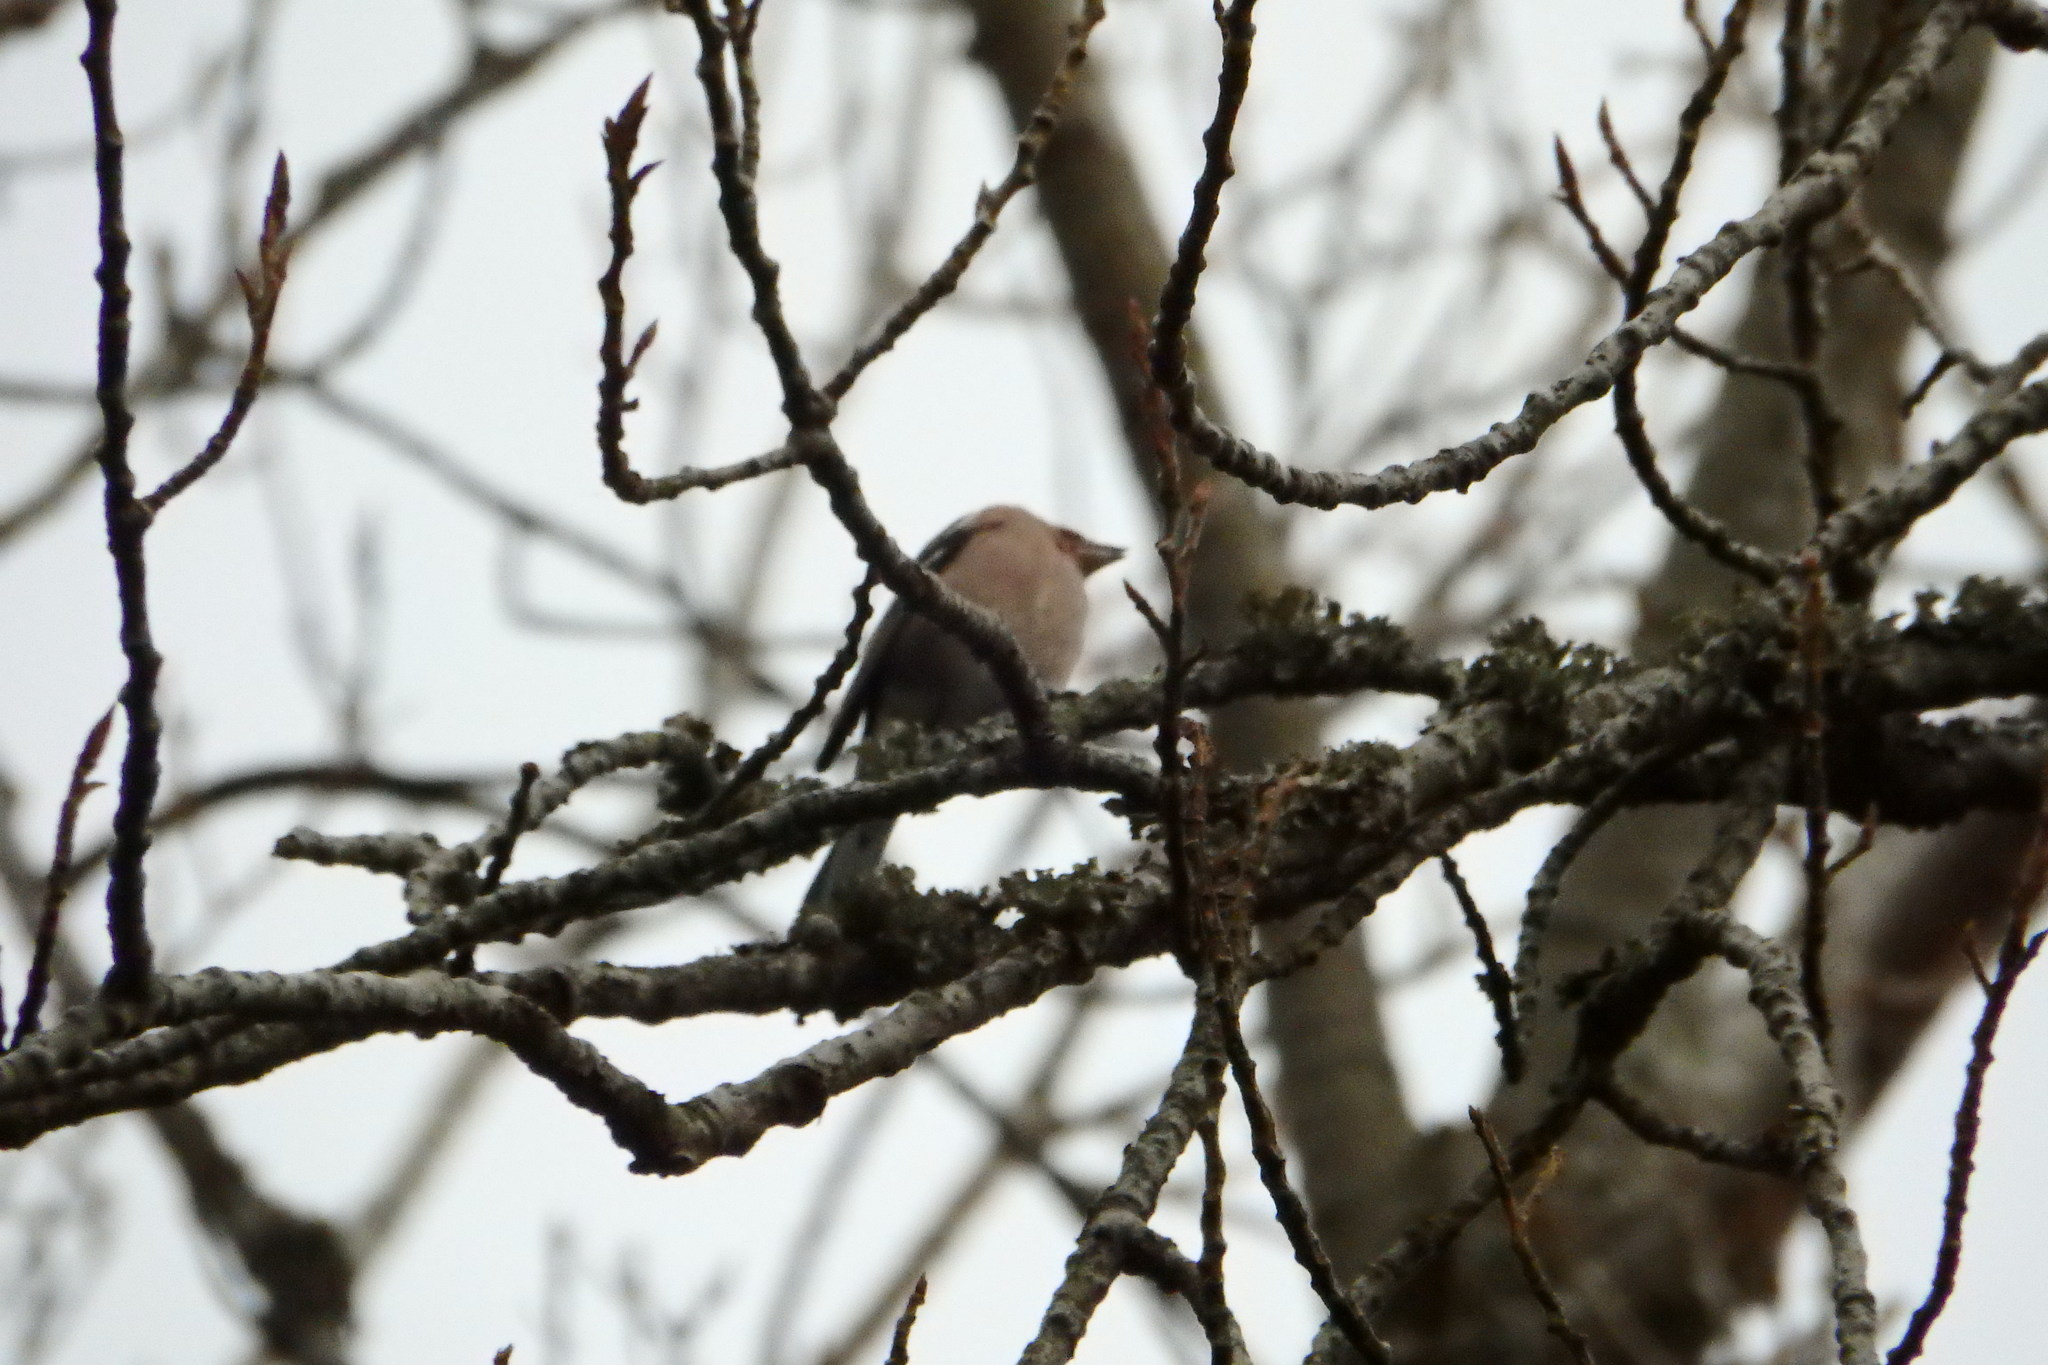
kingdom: Animalia
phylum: Chordata
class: Aves
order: Passeriformes
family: Fringillidae
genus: Fringilla
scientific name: Fringilla coelebs
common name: Common chaffinch
